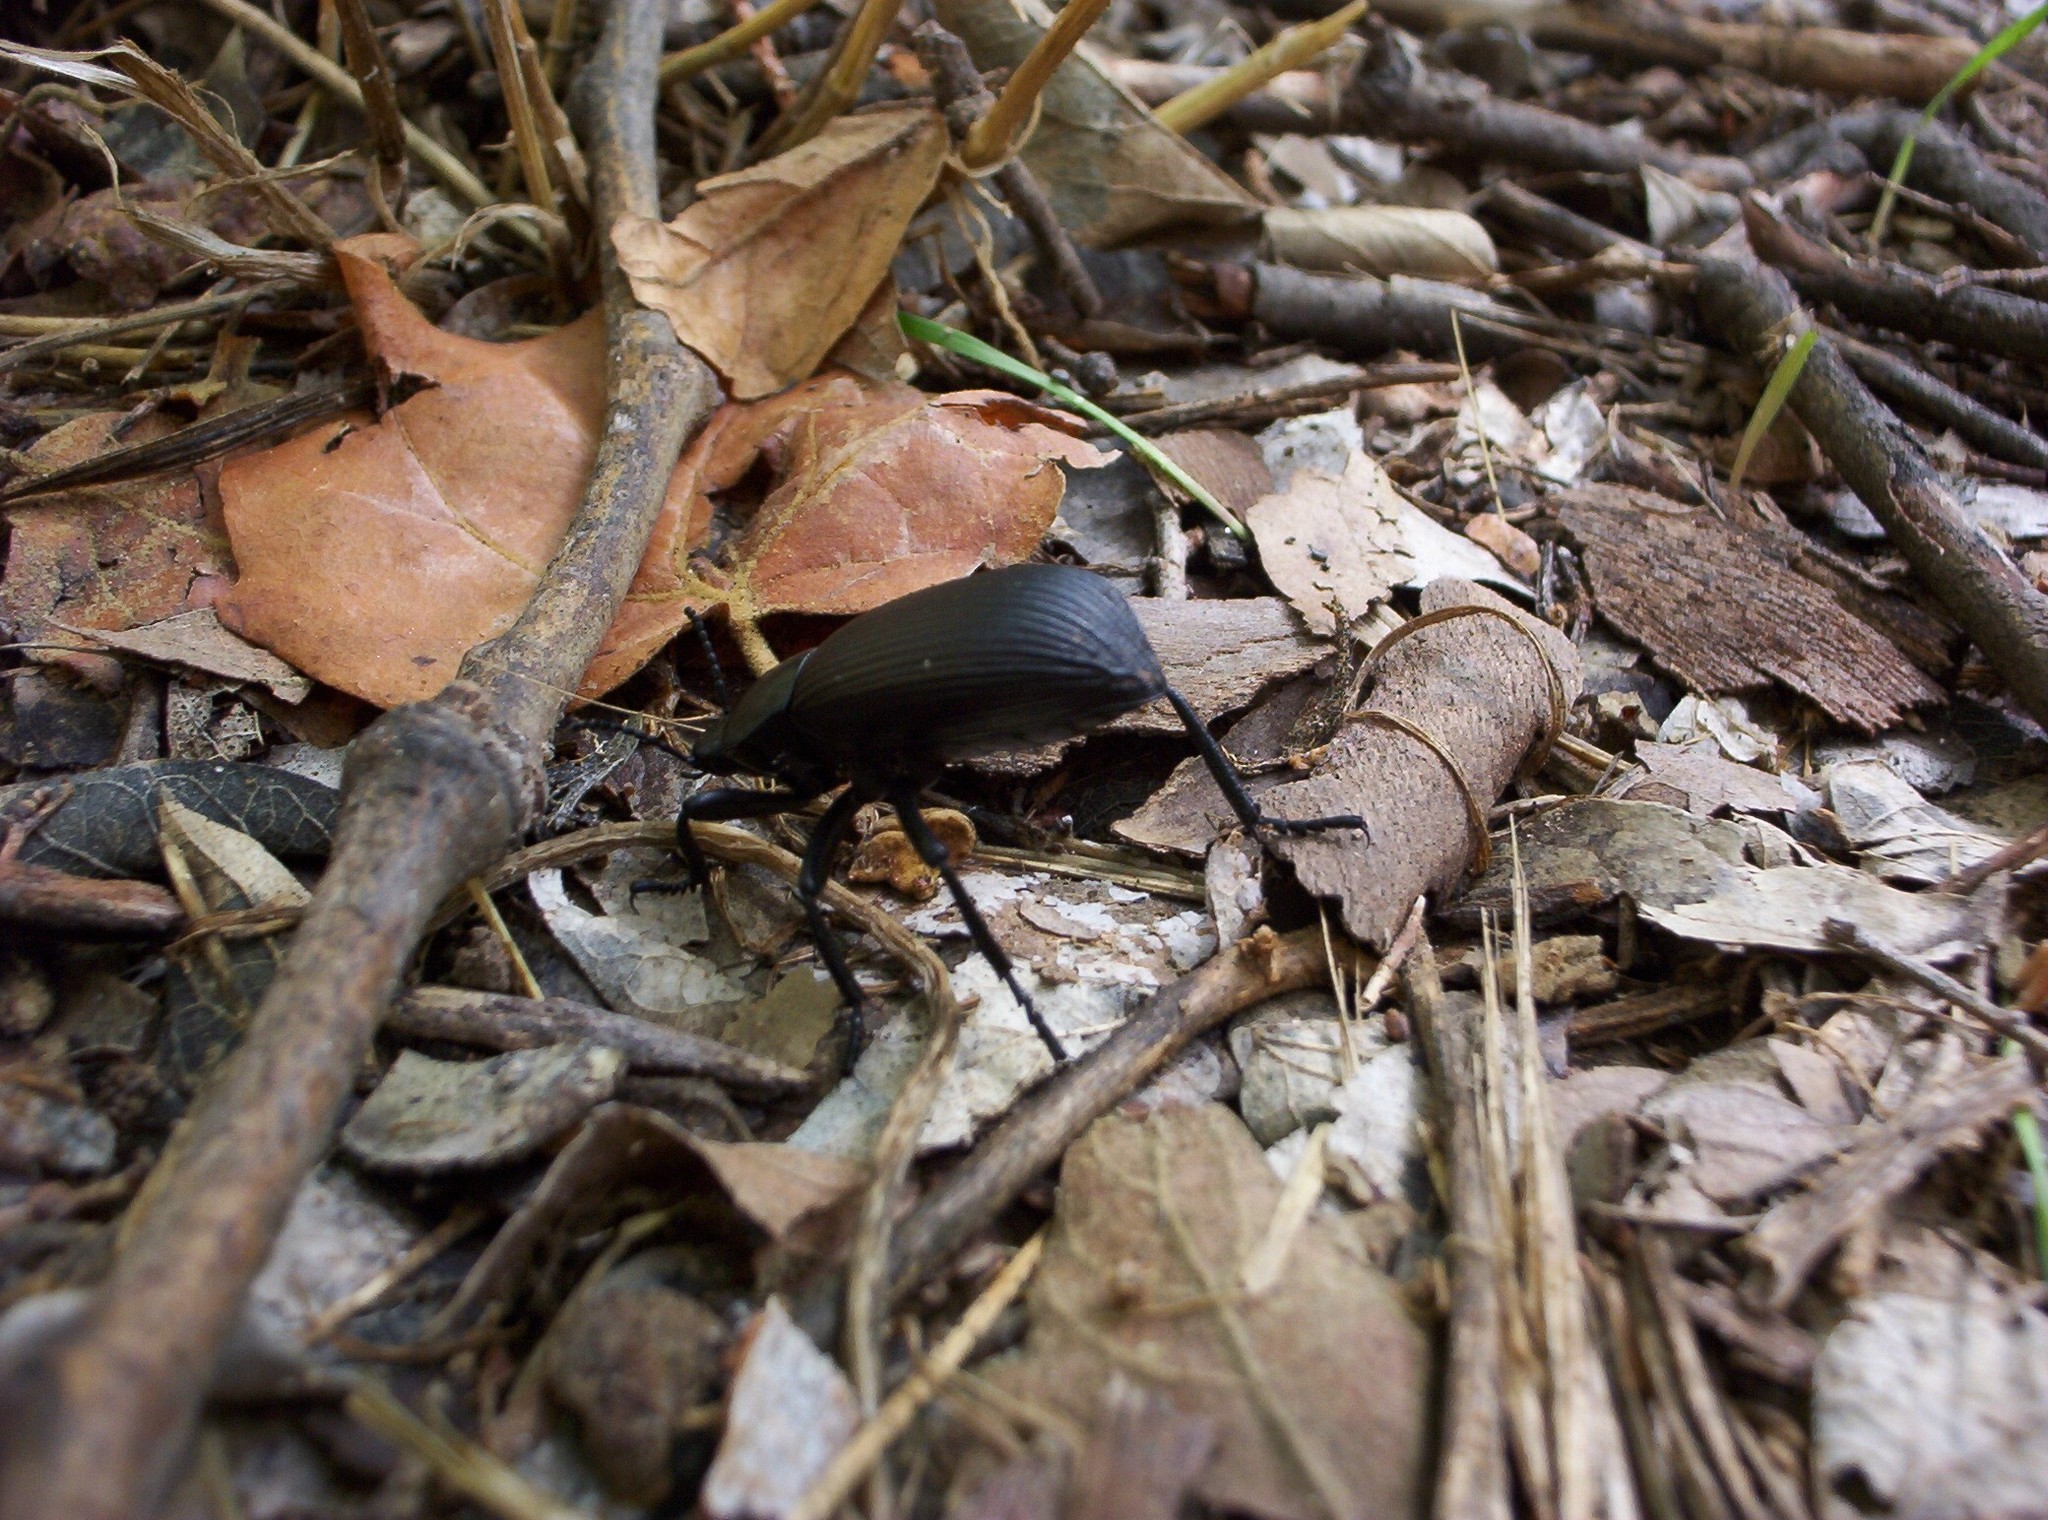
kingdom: Animalia
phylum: Arthropoda
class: Insecta
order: Coleoptera
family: Tenebrionidae
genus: Eleodes
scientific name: Eleodes obscura
